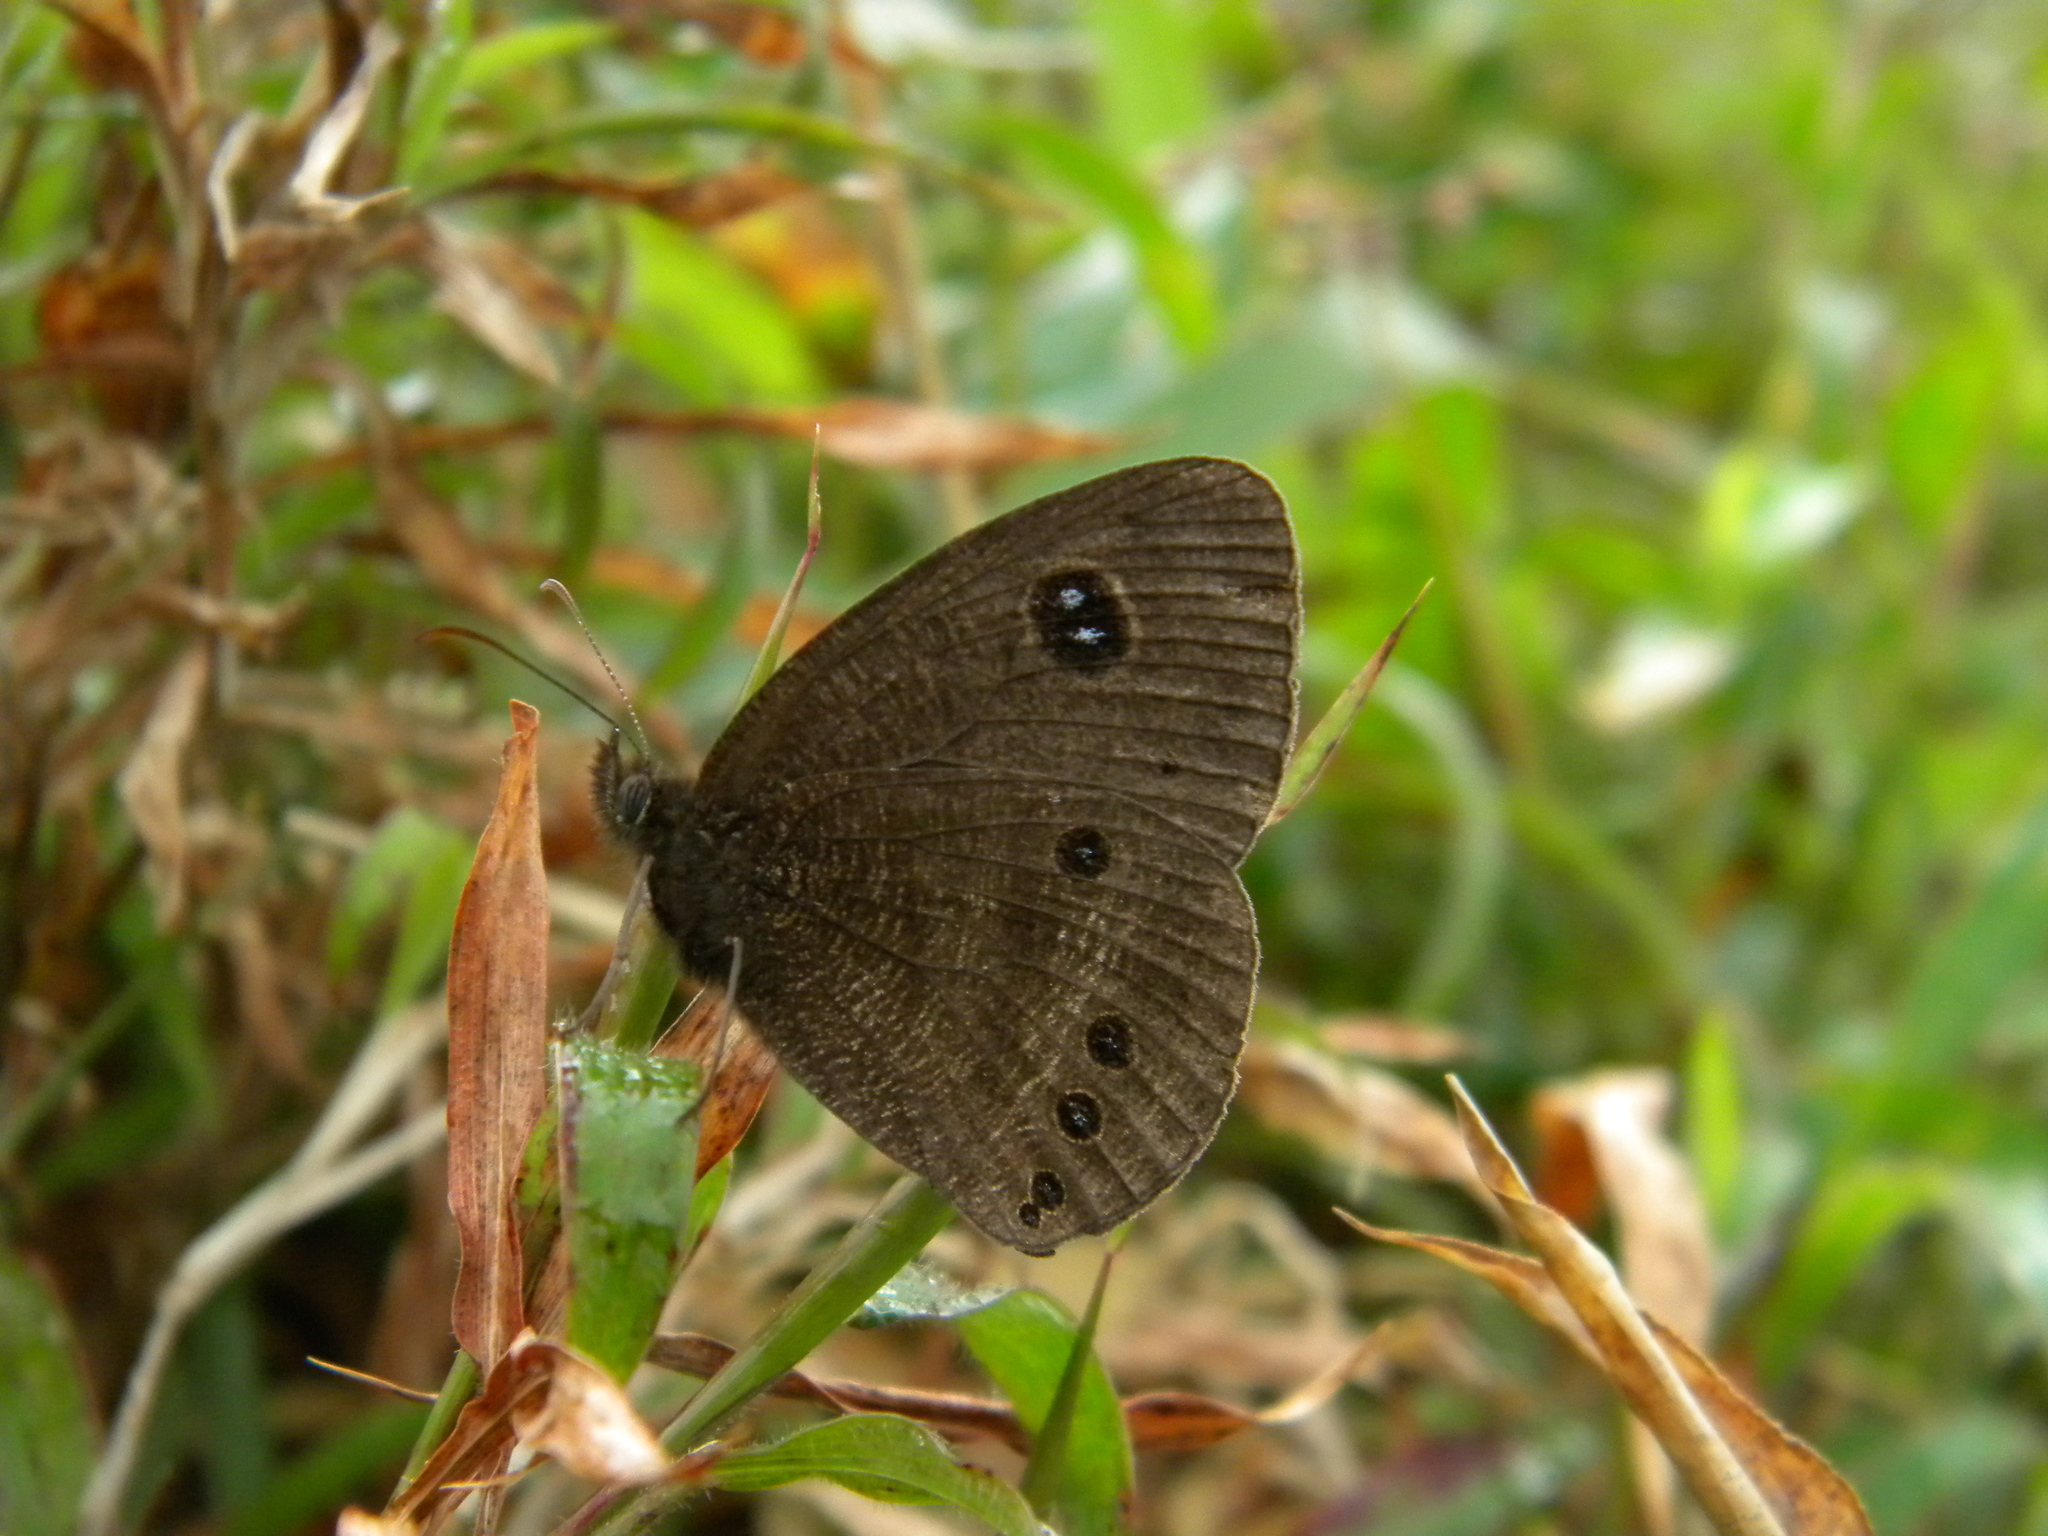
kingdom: Animalia
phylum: Arthropoda
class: Insecta
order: Lepidoptera
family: Nymphalidae
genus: Ypthima
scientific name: Ypthima ypthimoides
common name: Palni four-ring
